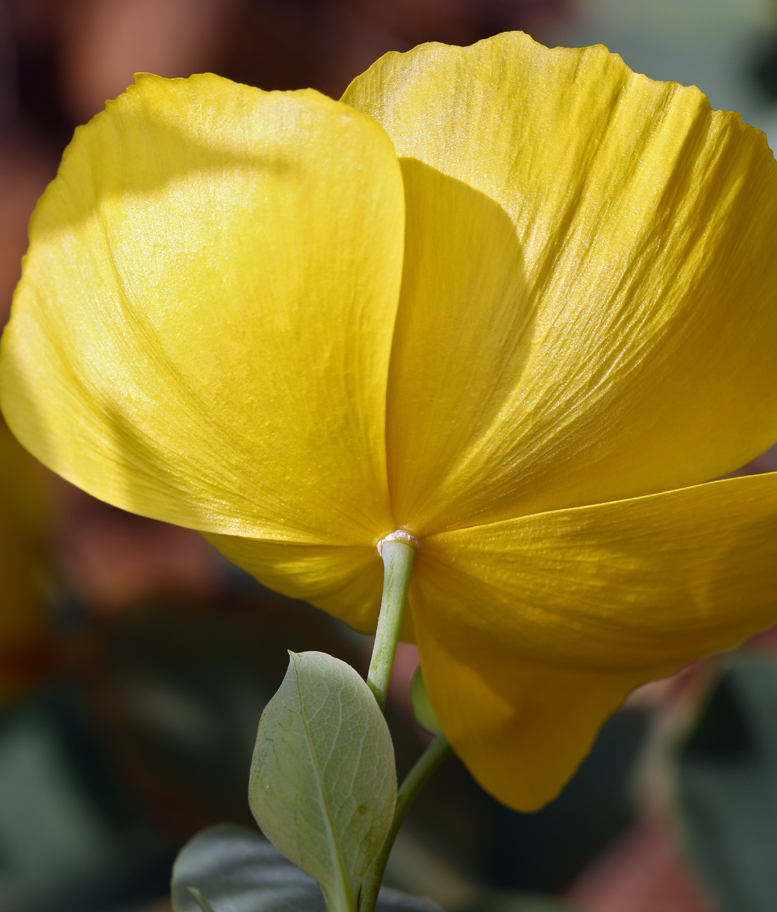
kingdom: Plantae
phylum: Tracheophyta
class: Magnoliopsida
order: Ranunculales
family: Papaveraceae
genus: Dendromecon
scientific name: Dendromecon harfordii
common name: Island tree-poppy
